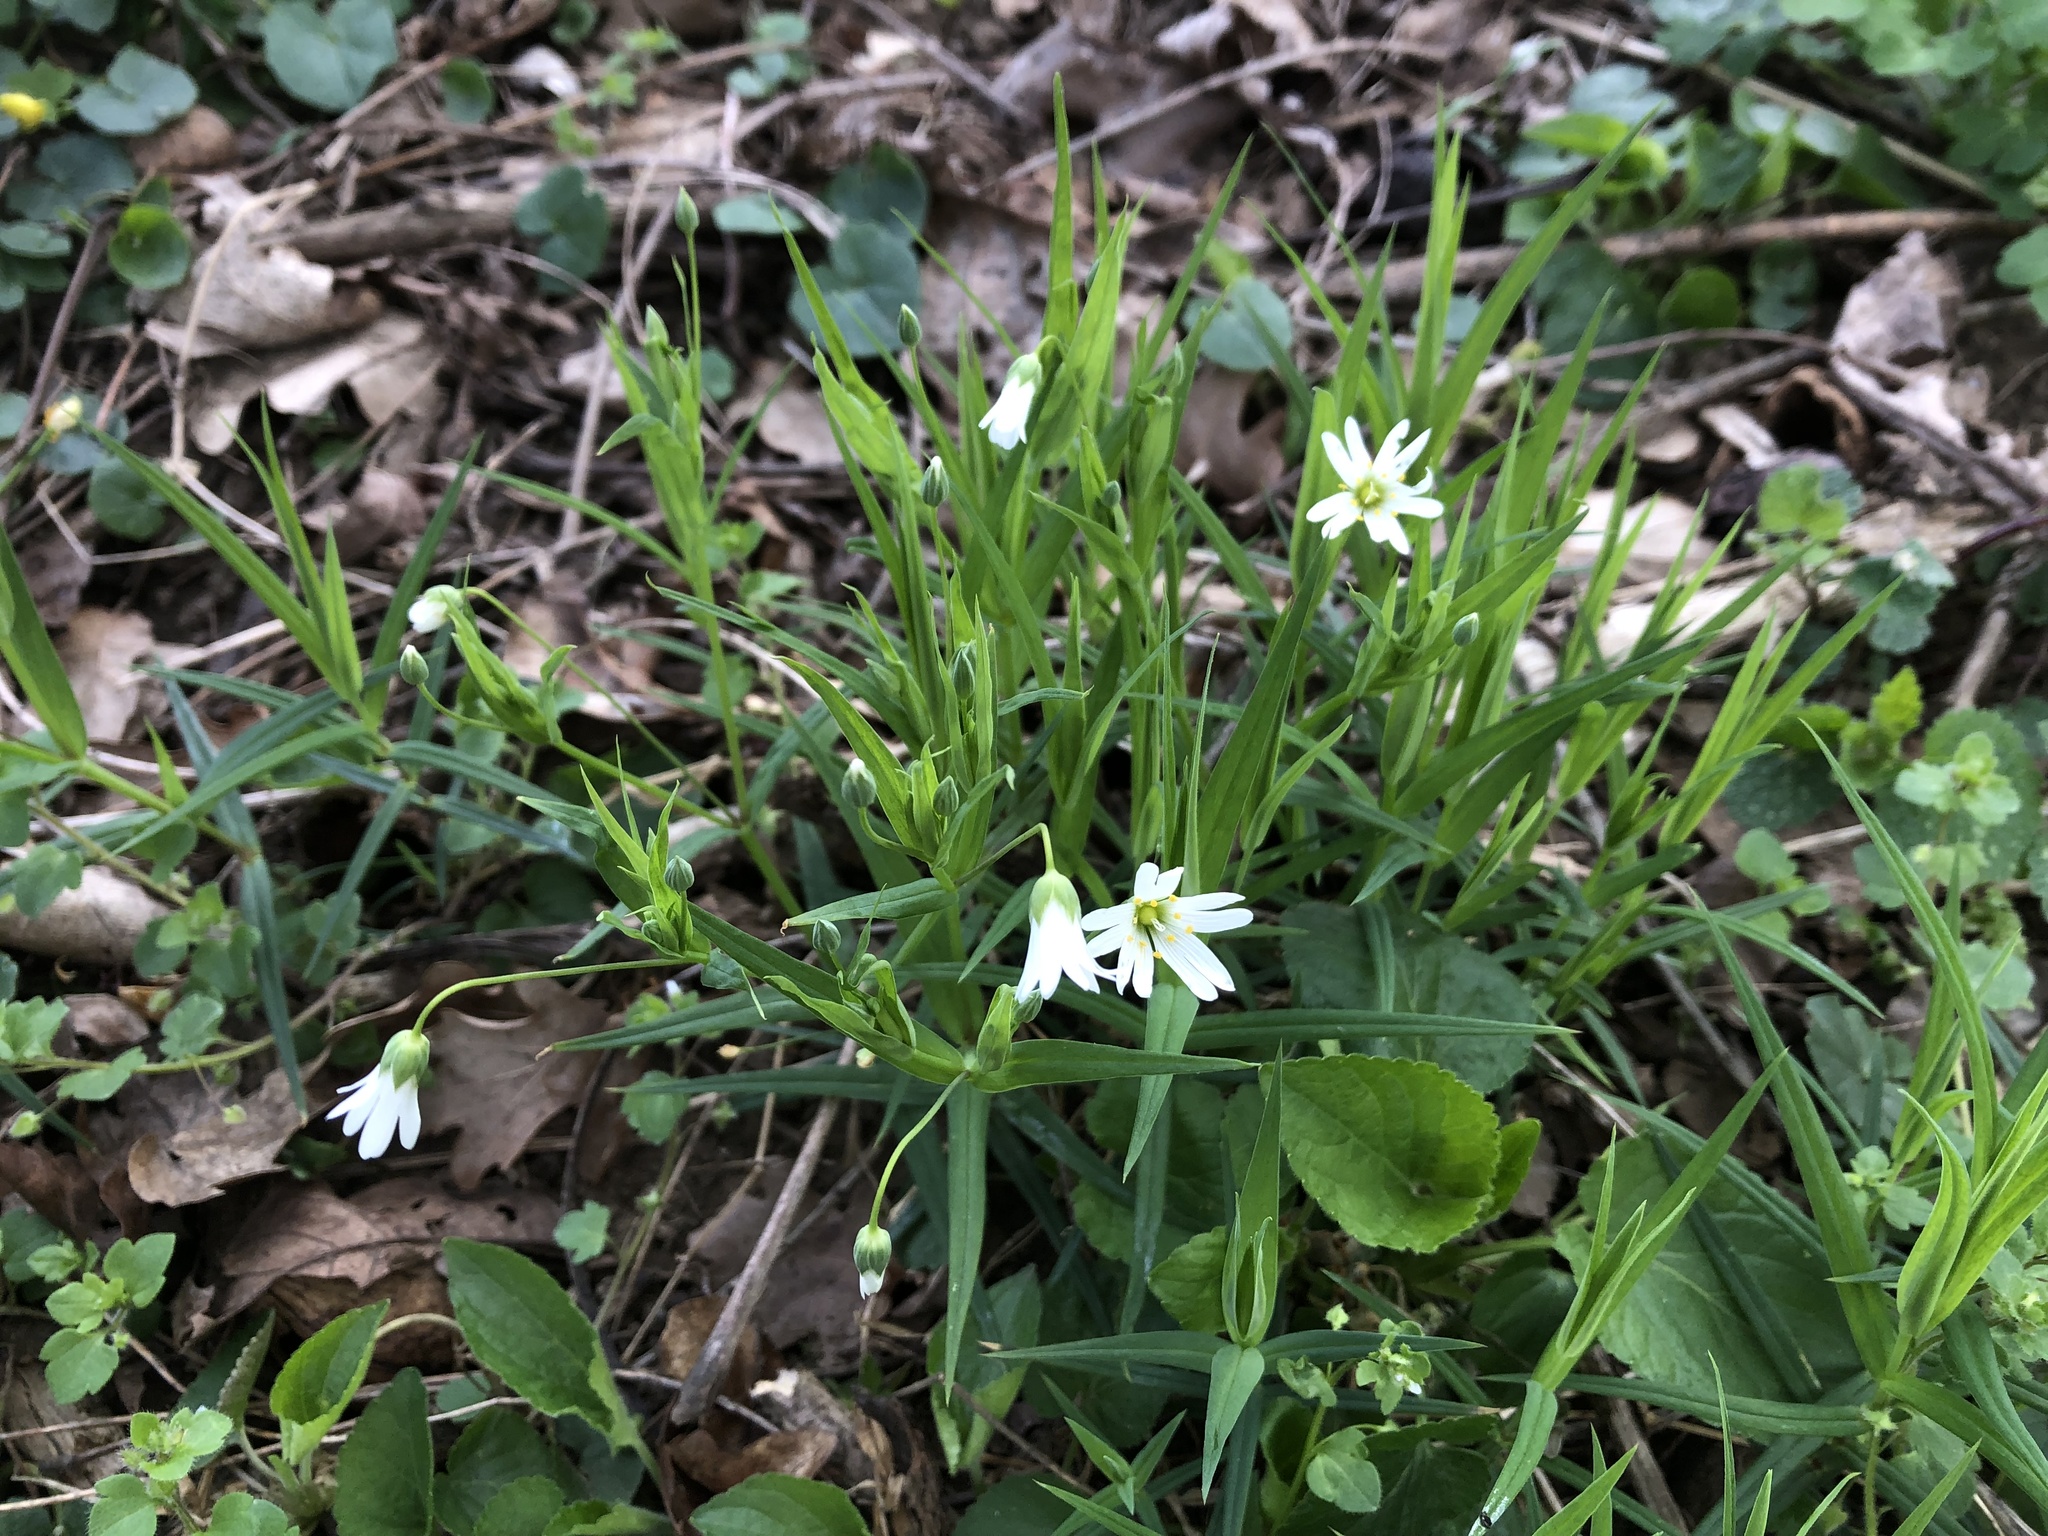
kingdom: Plantae
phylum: Tracheophyta
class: Magnoliopsida
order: Caryophyllales
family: Caryophyllaceae
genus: Rabelera
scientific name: Rabelera holostea
